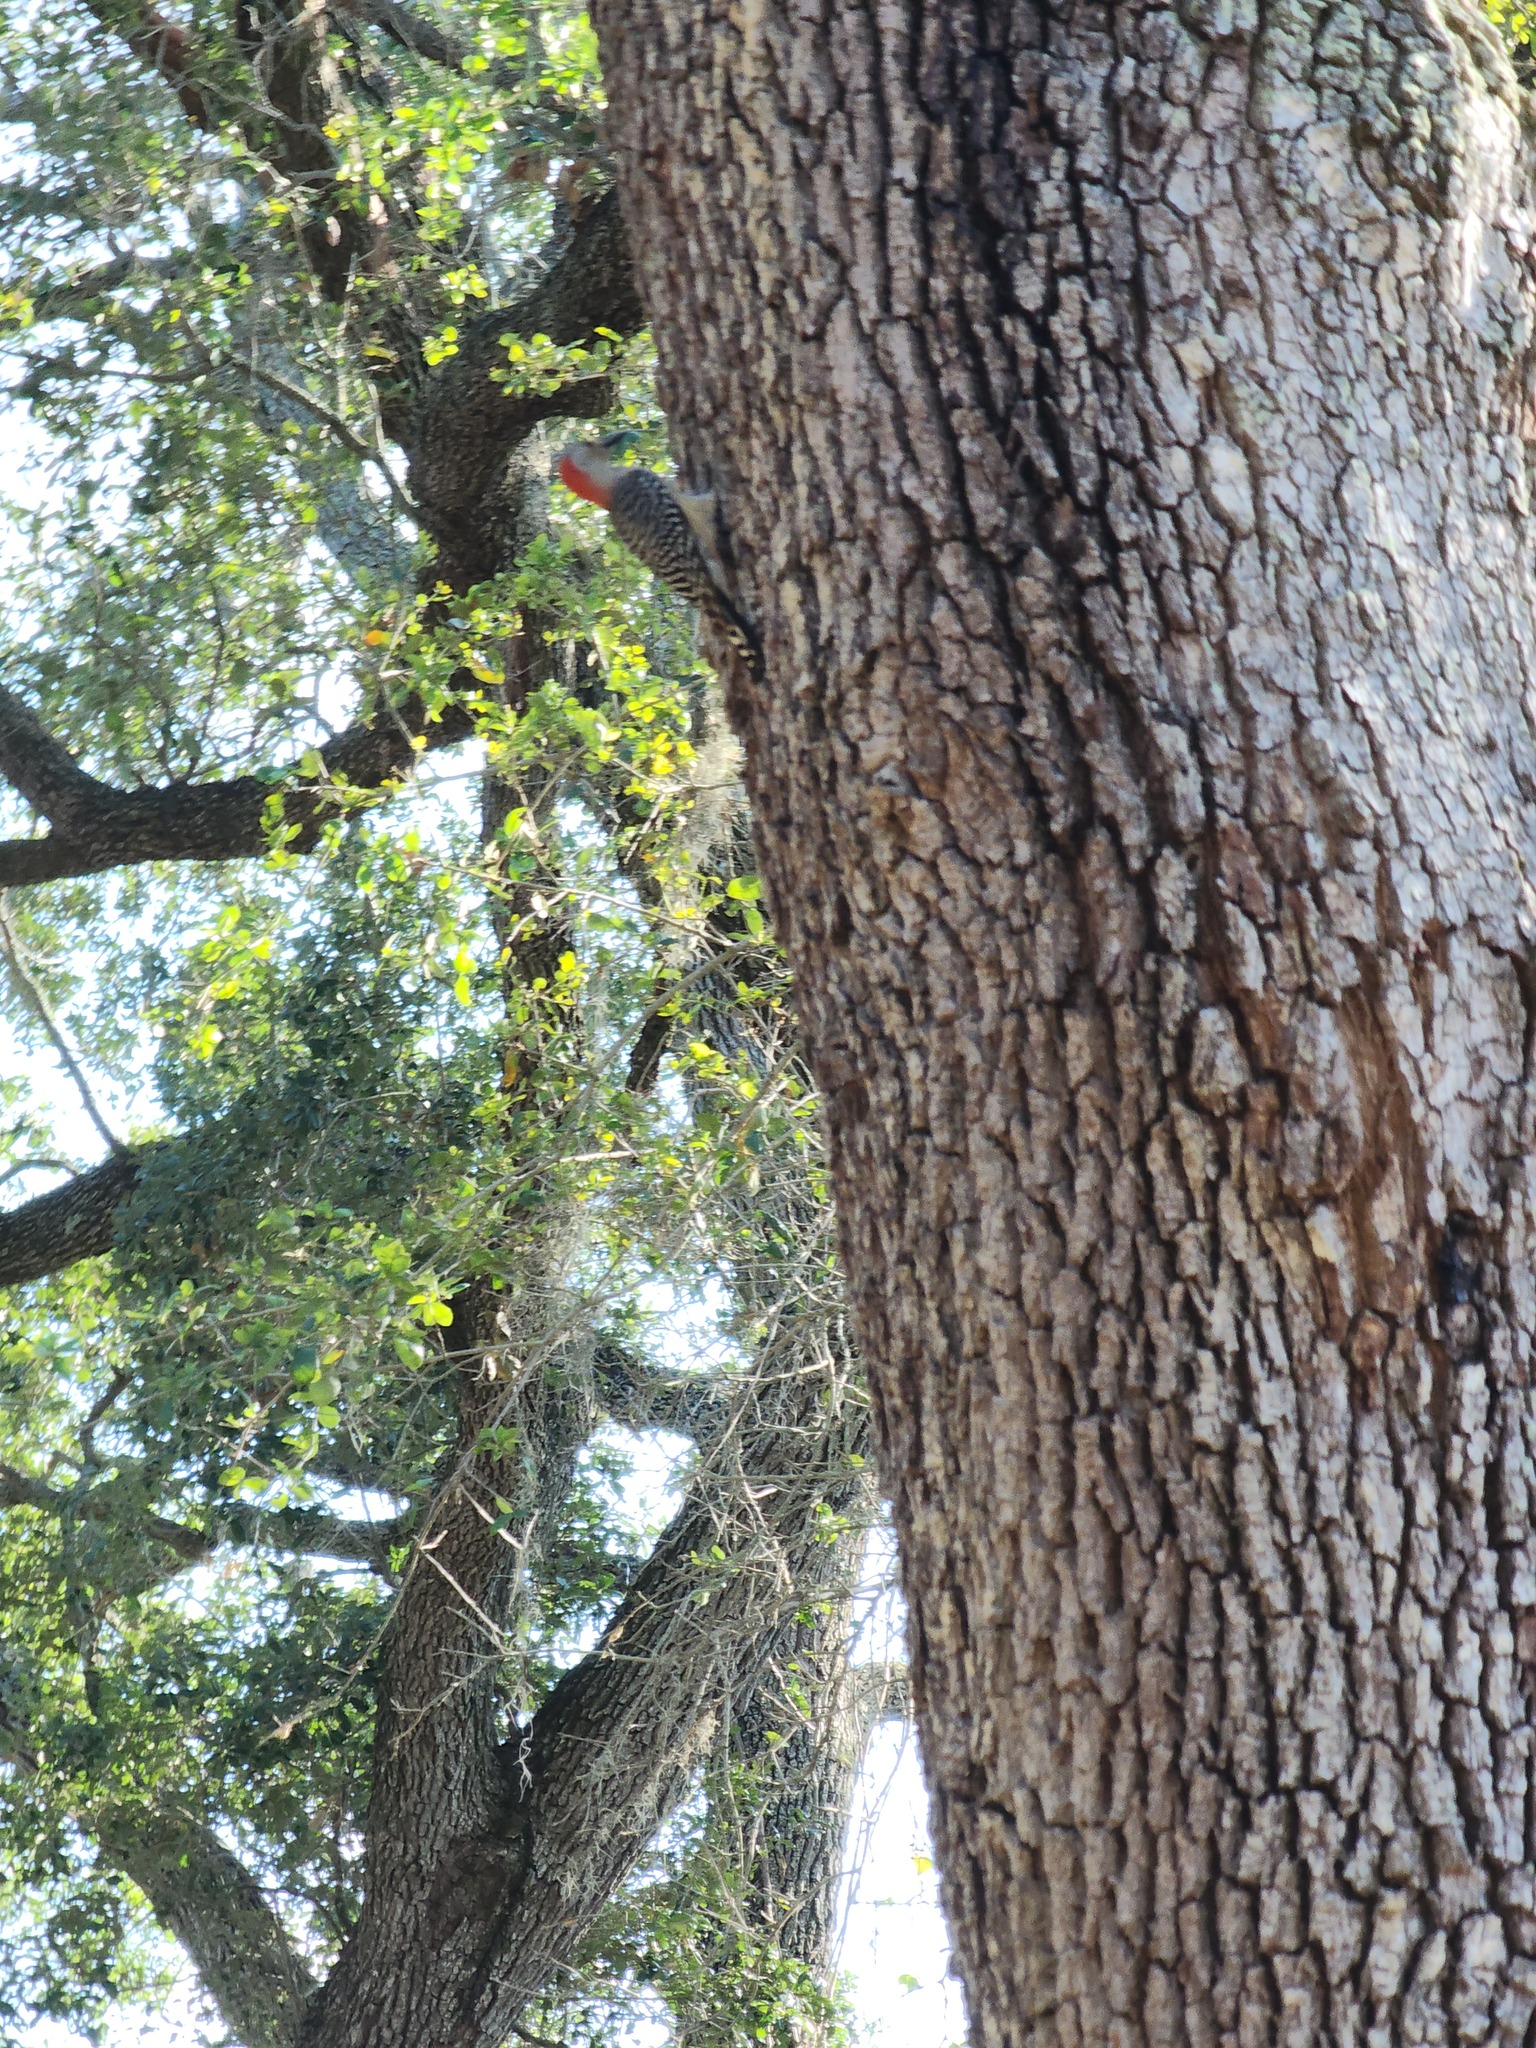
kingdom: Animalia
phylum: Chordata
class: Aves
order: Piciformes
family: Picidae
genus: Melanerpes
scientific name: Melanerpes carolinus
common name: Red-bellied woodpecker
